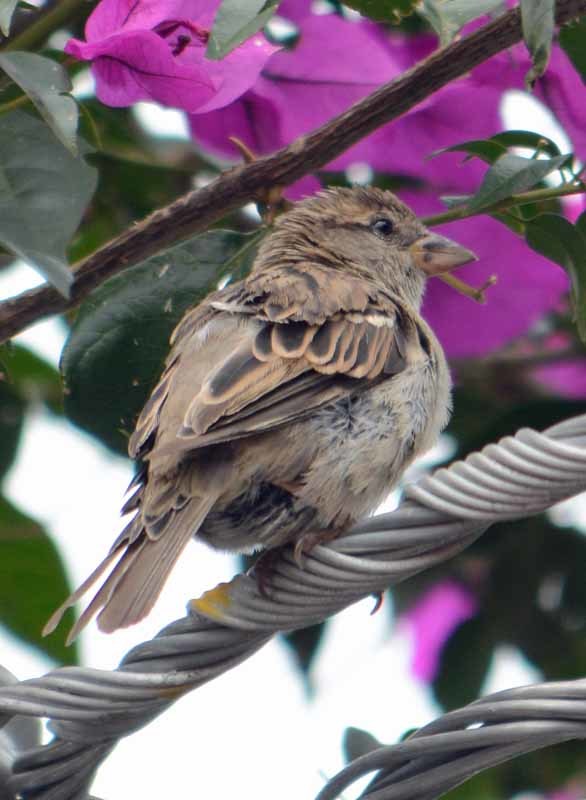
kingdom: Animalia
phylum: Chordata
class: Aves
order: Passeriformes
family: Passeridae
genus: Passer
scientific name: Passer domesticus
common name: House sparrow
